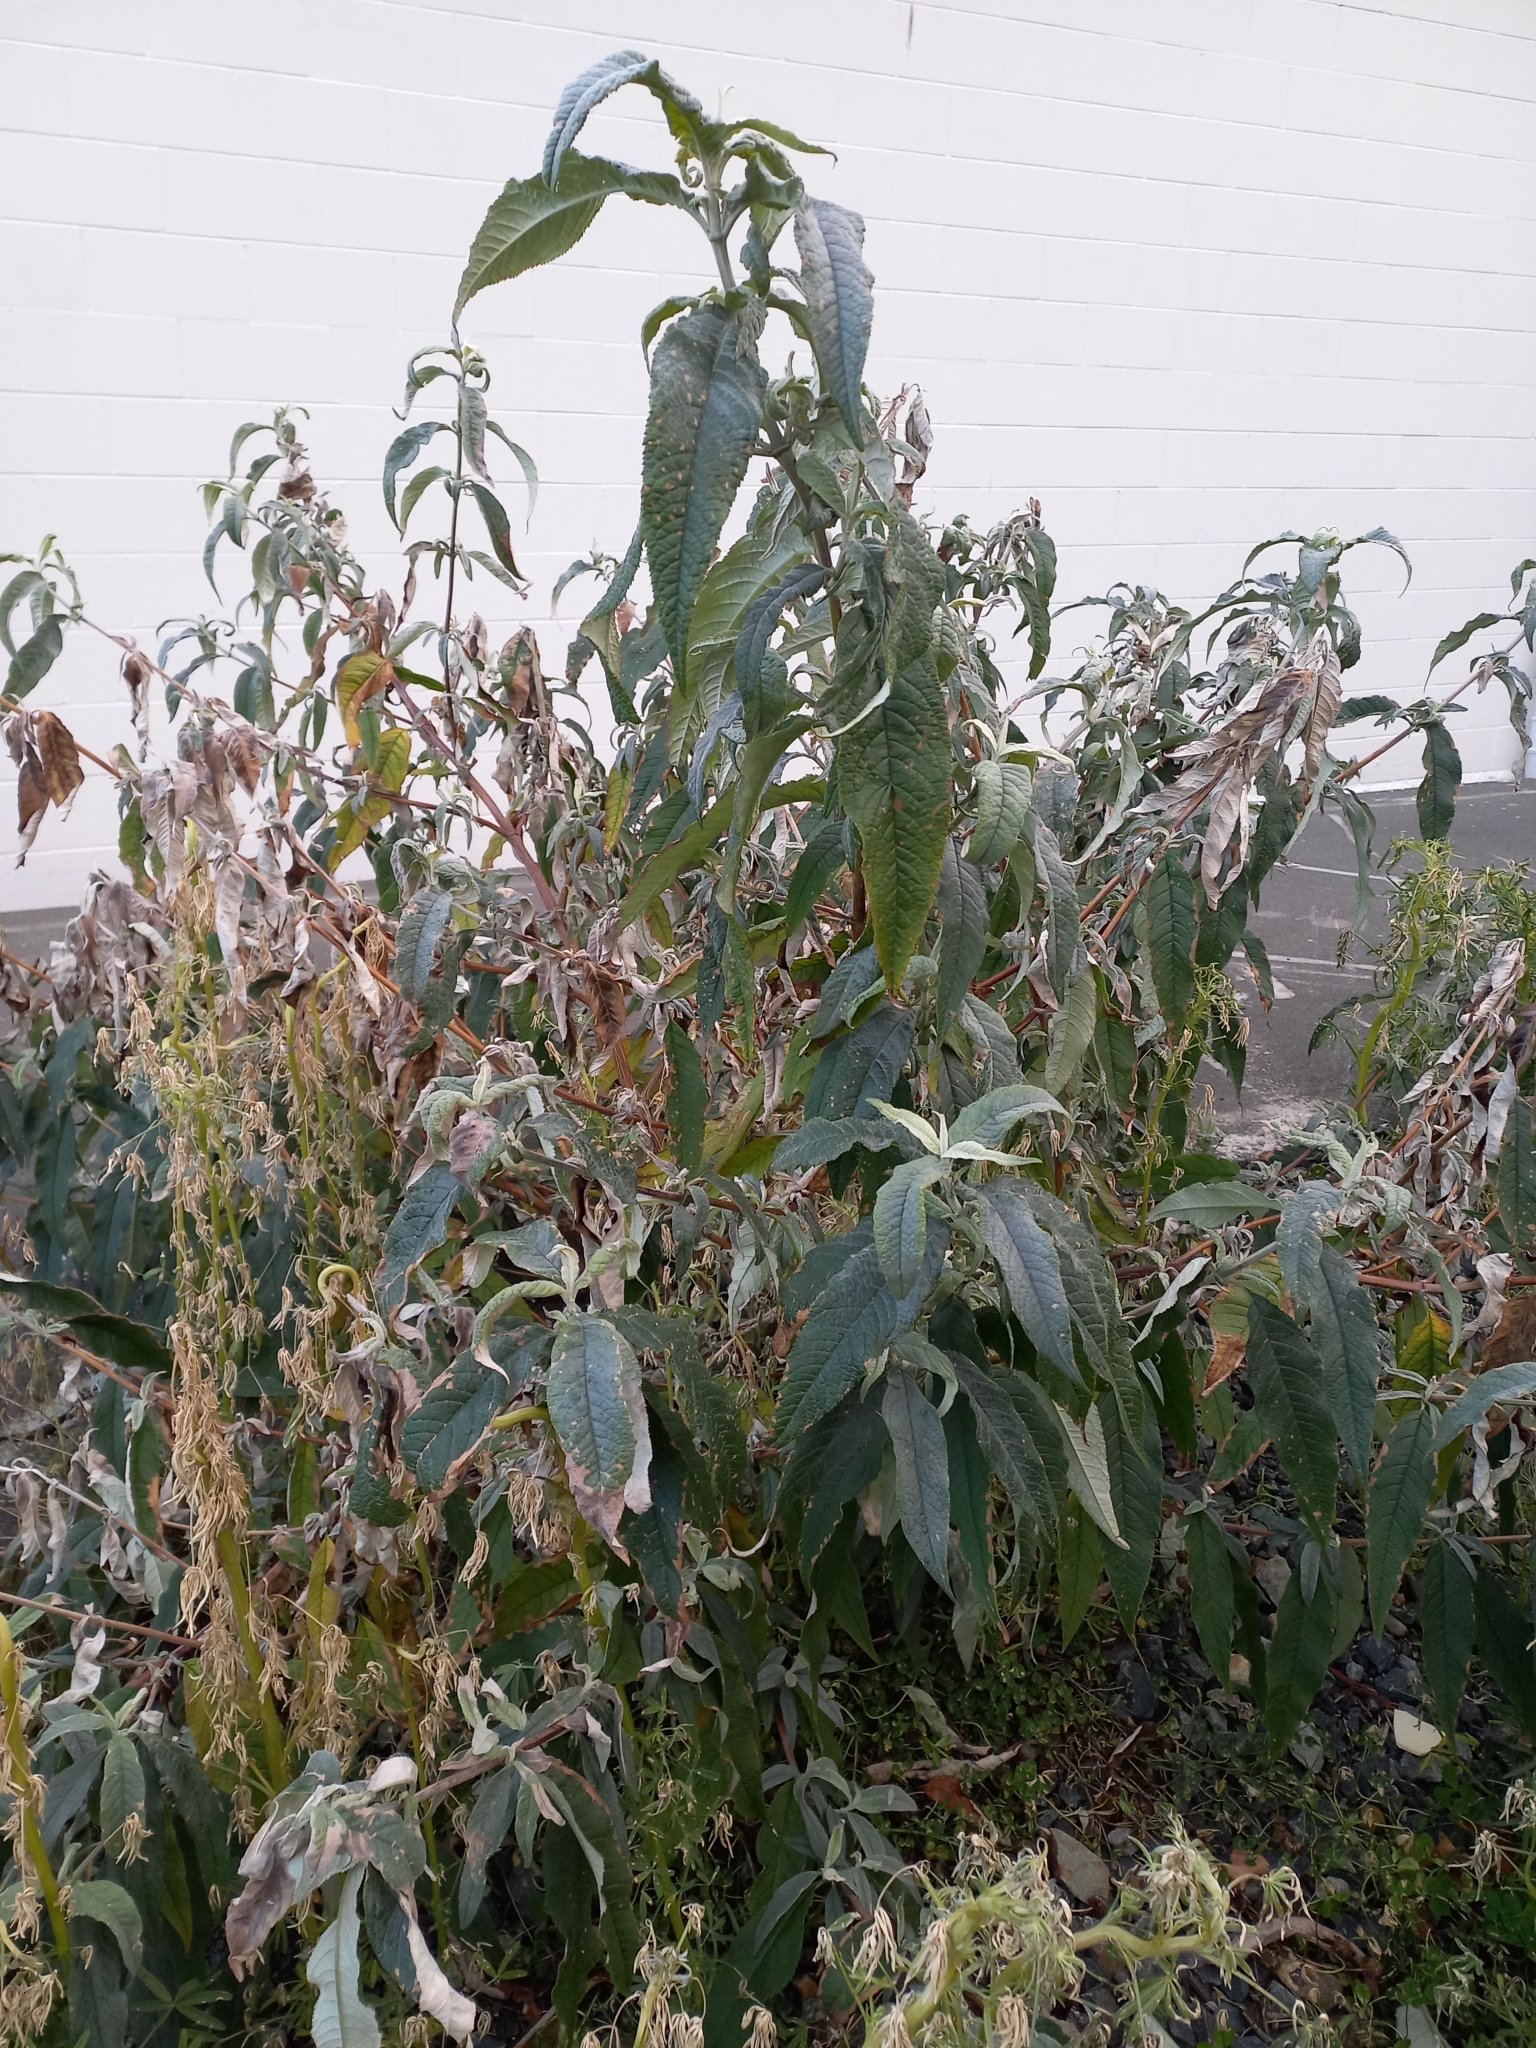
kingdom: Plantae
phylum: Tracheophyta
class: Magnoliopsida
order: Lamiales
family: Scrophulariaceae
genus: Buddleja
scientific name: Buddleja davidii
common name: Butterfly-bush
